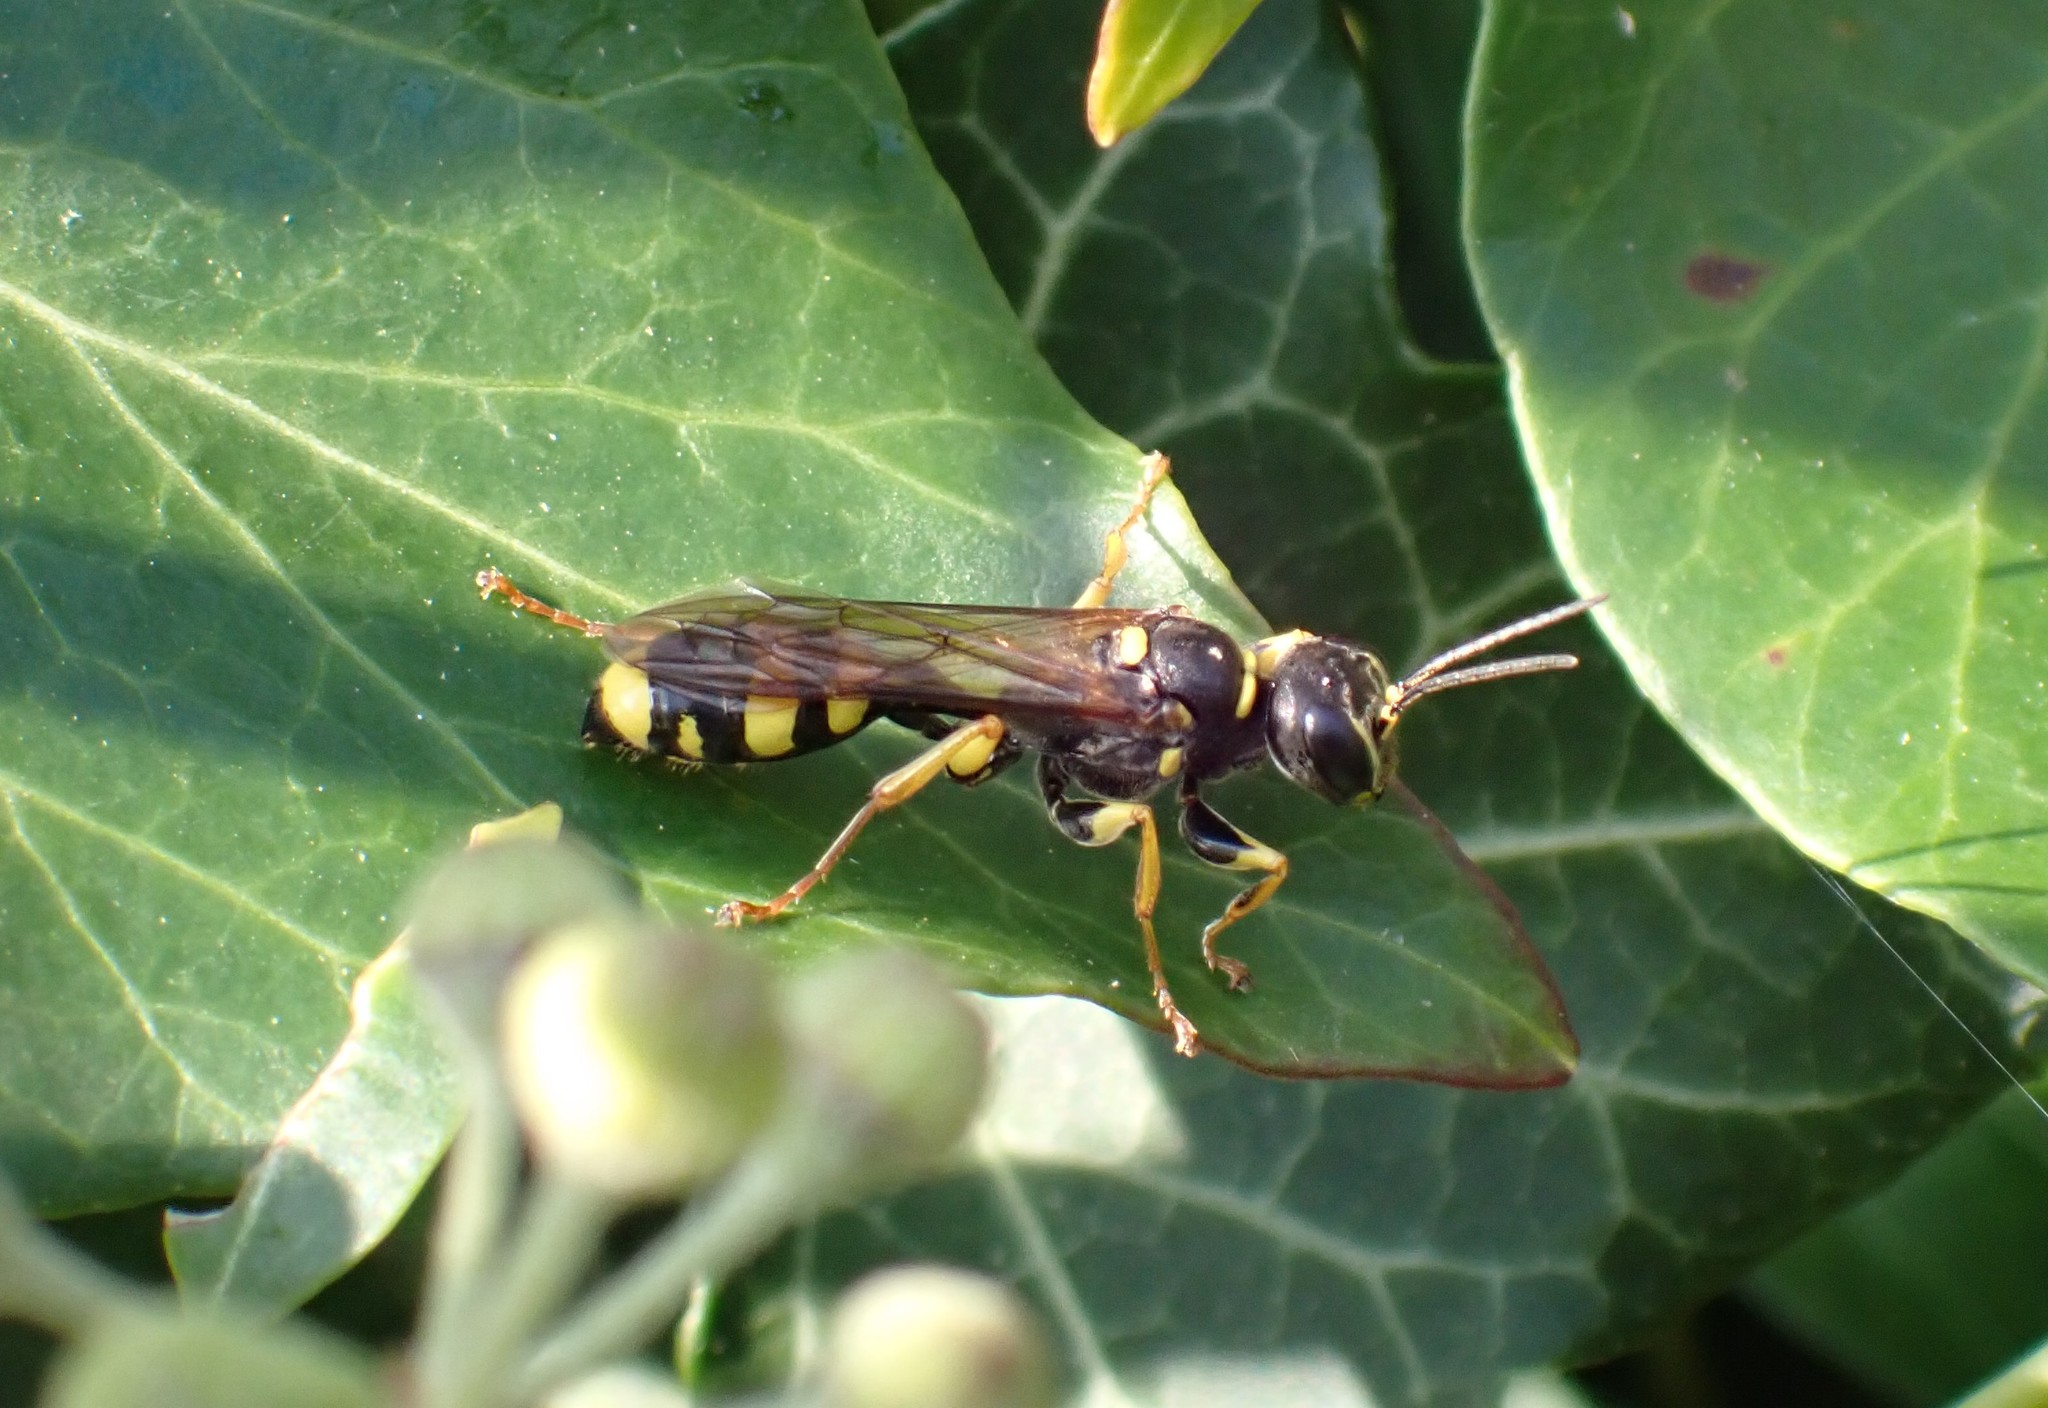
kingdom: Animalia
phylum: Arthropoda
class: Insecta
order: Hymenoptera
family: Crabronidae
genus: Mellinus
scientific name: Mellinus arvensis
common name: Field digger wasp
